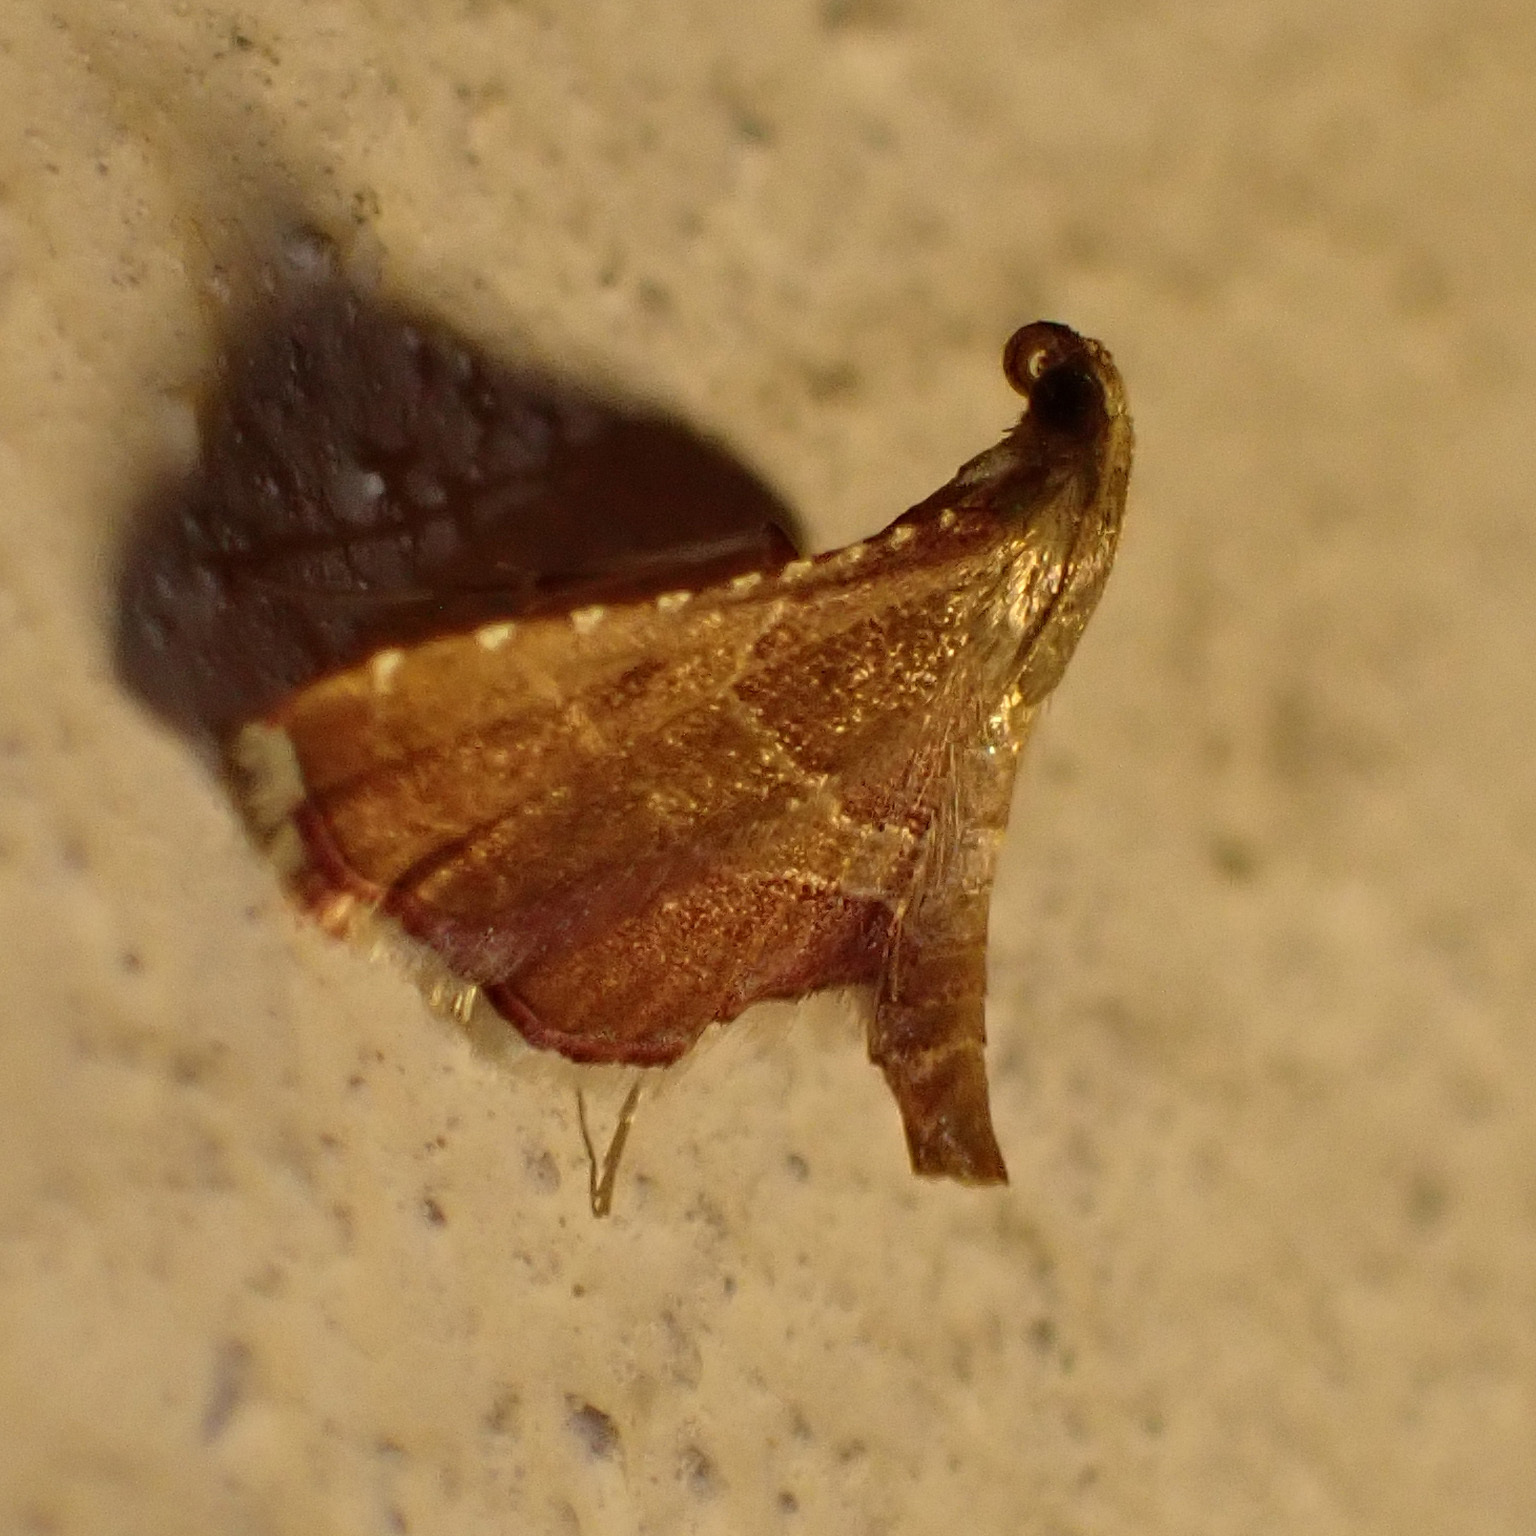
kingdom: Animalia
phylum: Arthropoda
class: Insecta
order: Lepidoptera
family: Pyralidae
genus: Endotricha
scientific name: Endotricha flammealis
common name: Rosy tabby
